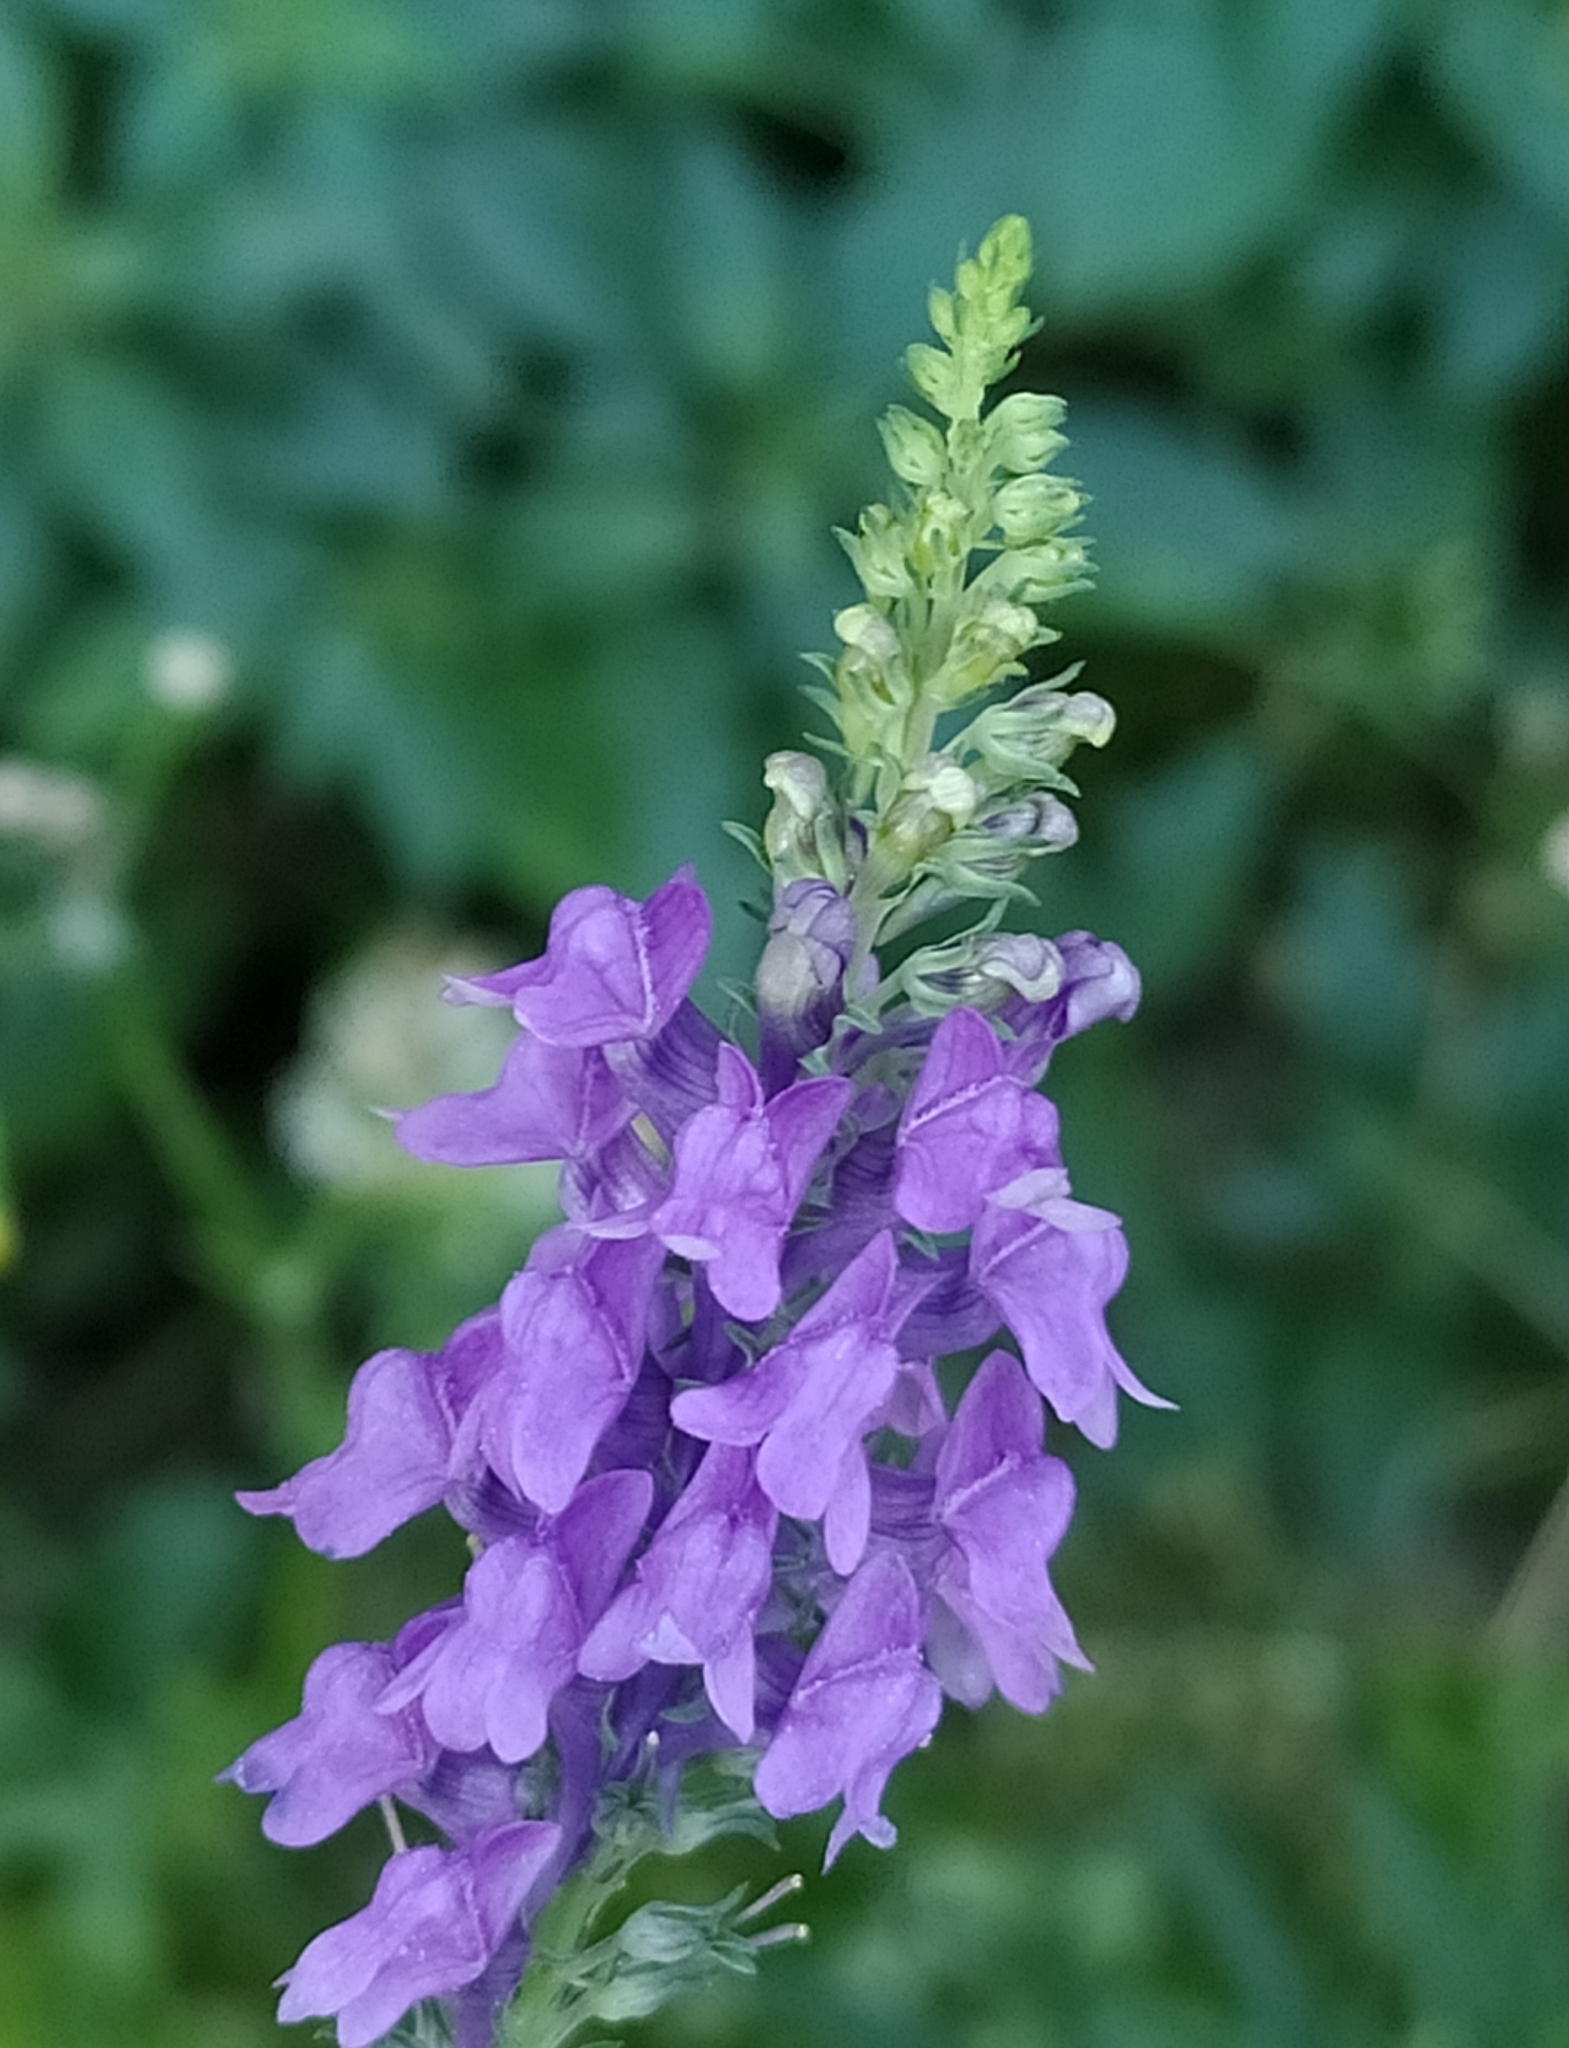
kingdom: Plantae
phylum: Tracheophyta
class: Magnoliopsida
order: Lamiales
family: Plantaginaceae
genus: Linaria
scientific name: Linaria purpurea
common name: Purple toadflax
